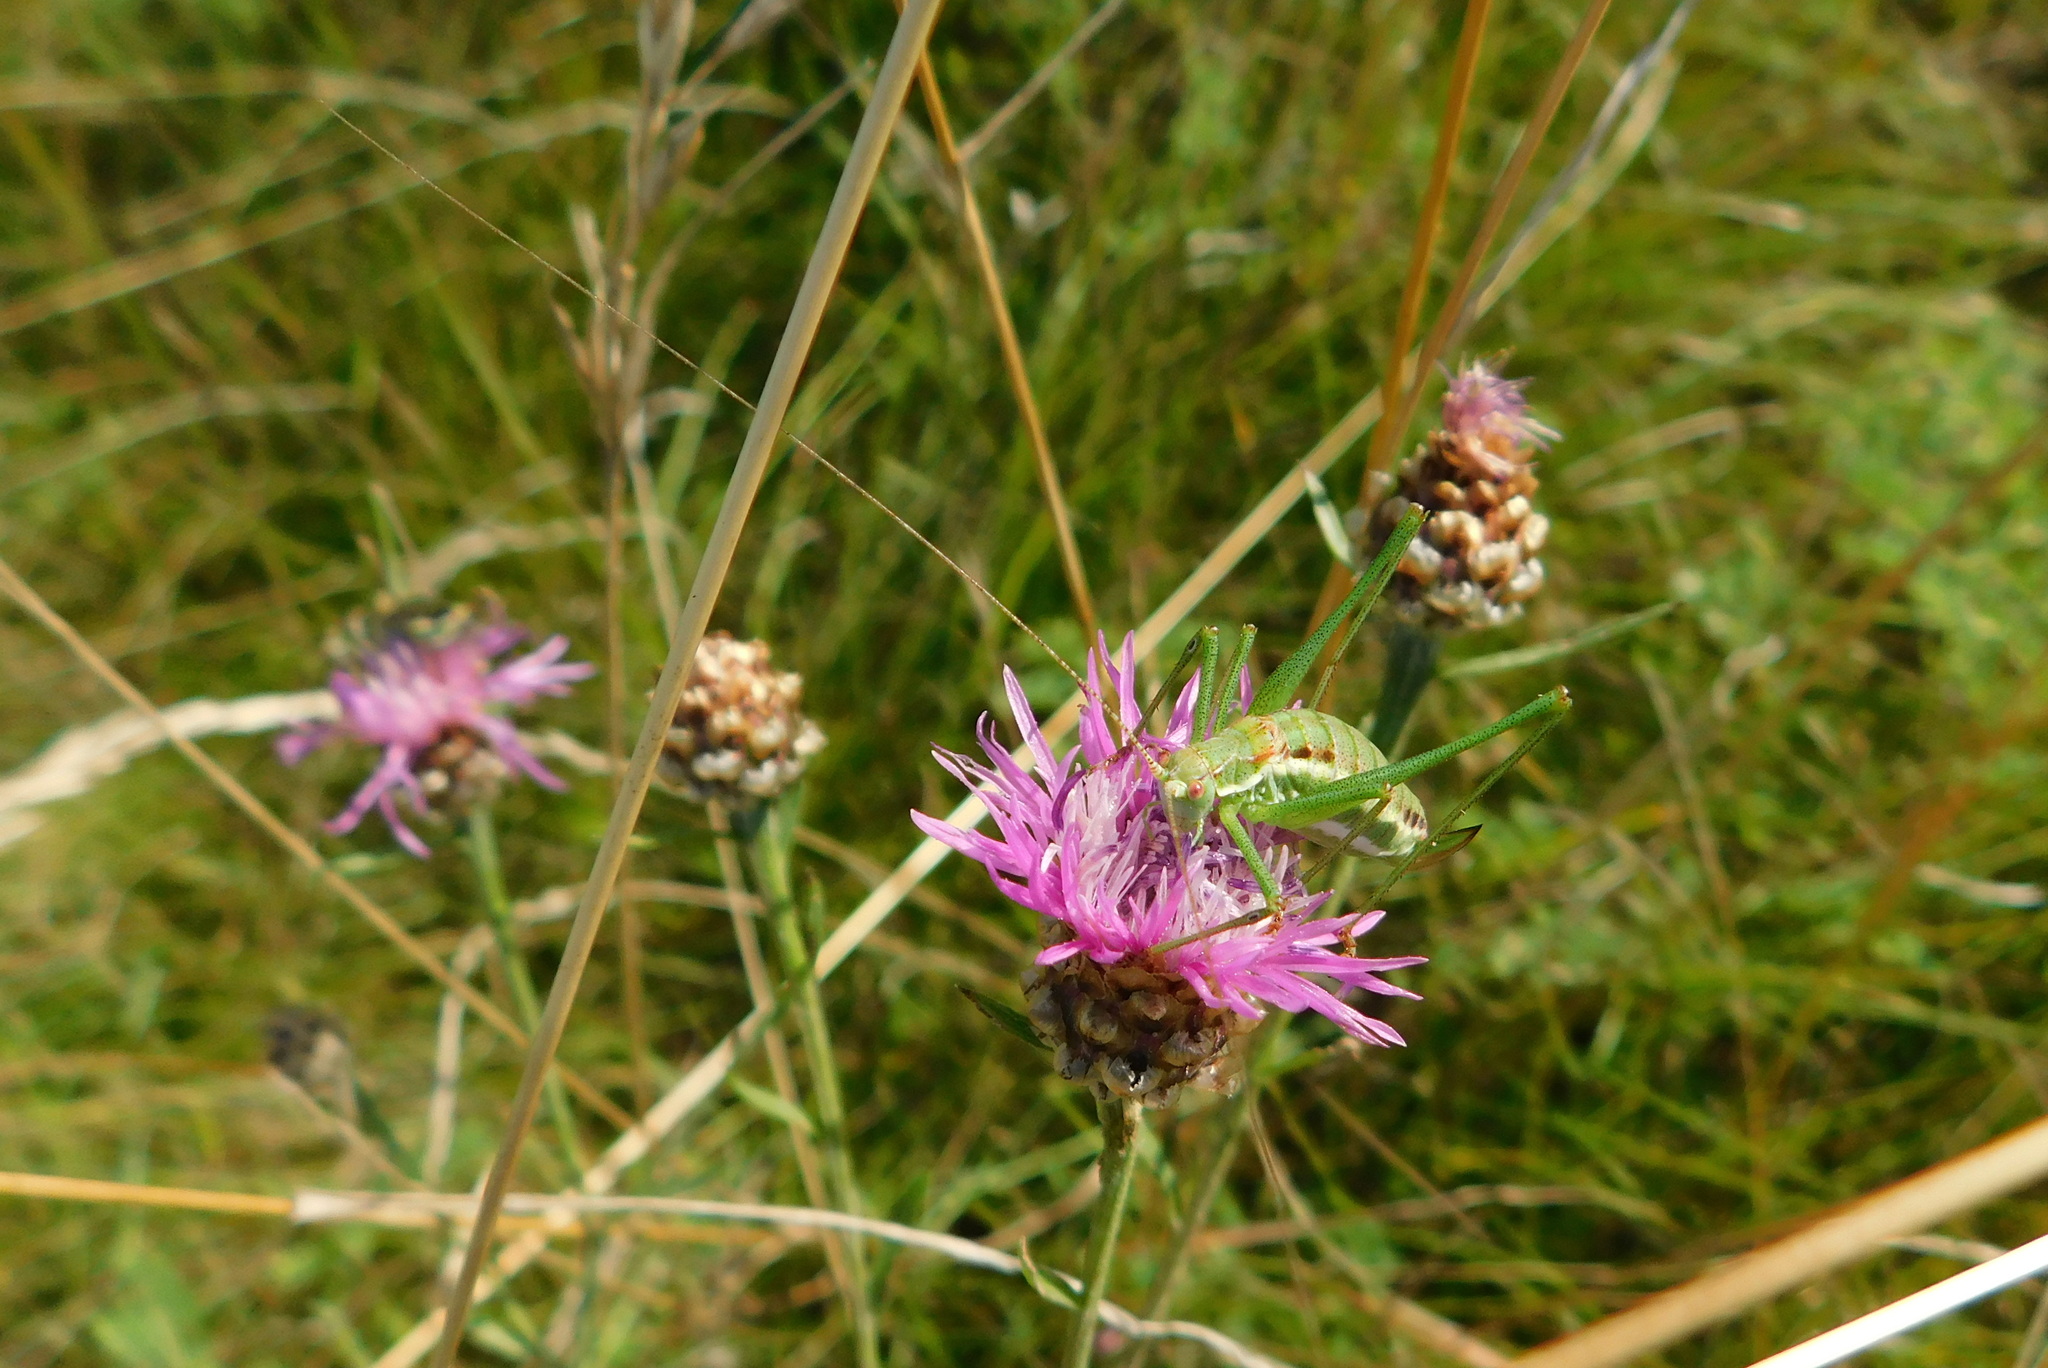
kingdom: Animalia
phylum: Arthropoda
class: Insecta
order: Orthoptera
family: Tettigoniidae
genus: Leptophyes
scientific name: Leptophyes albovittata
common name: Striped bush-cricket
